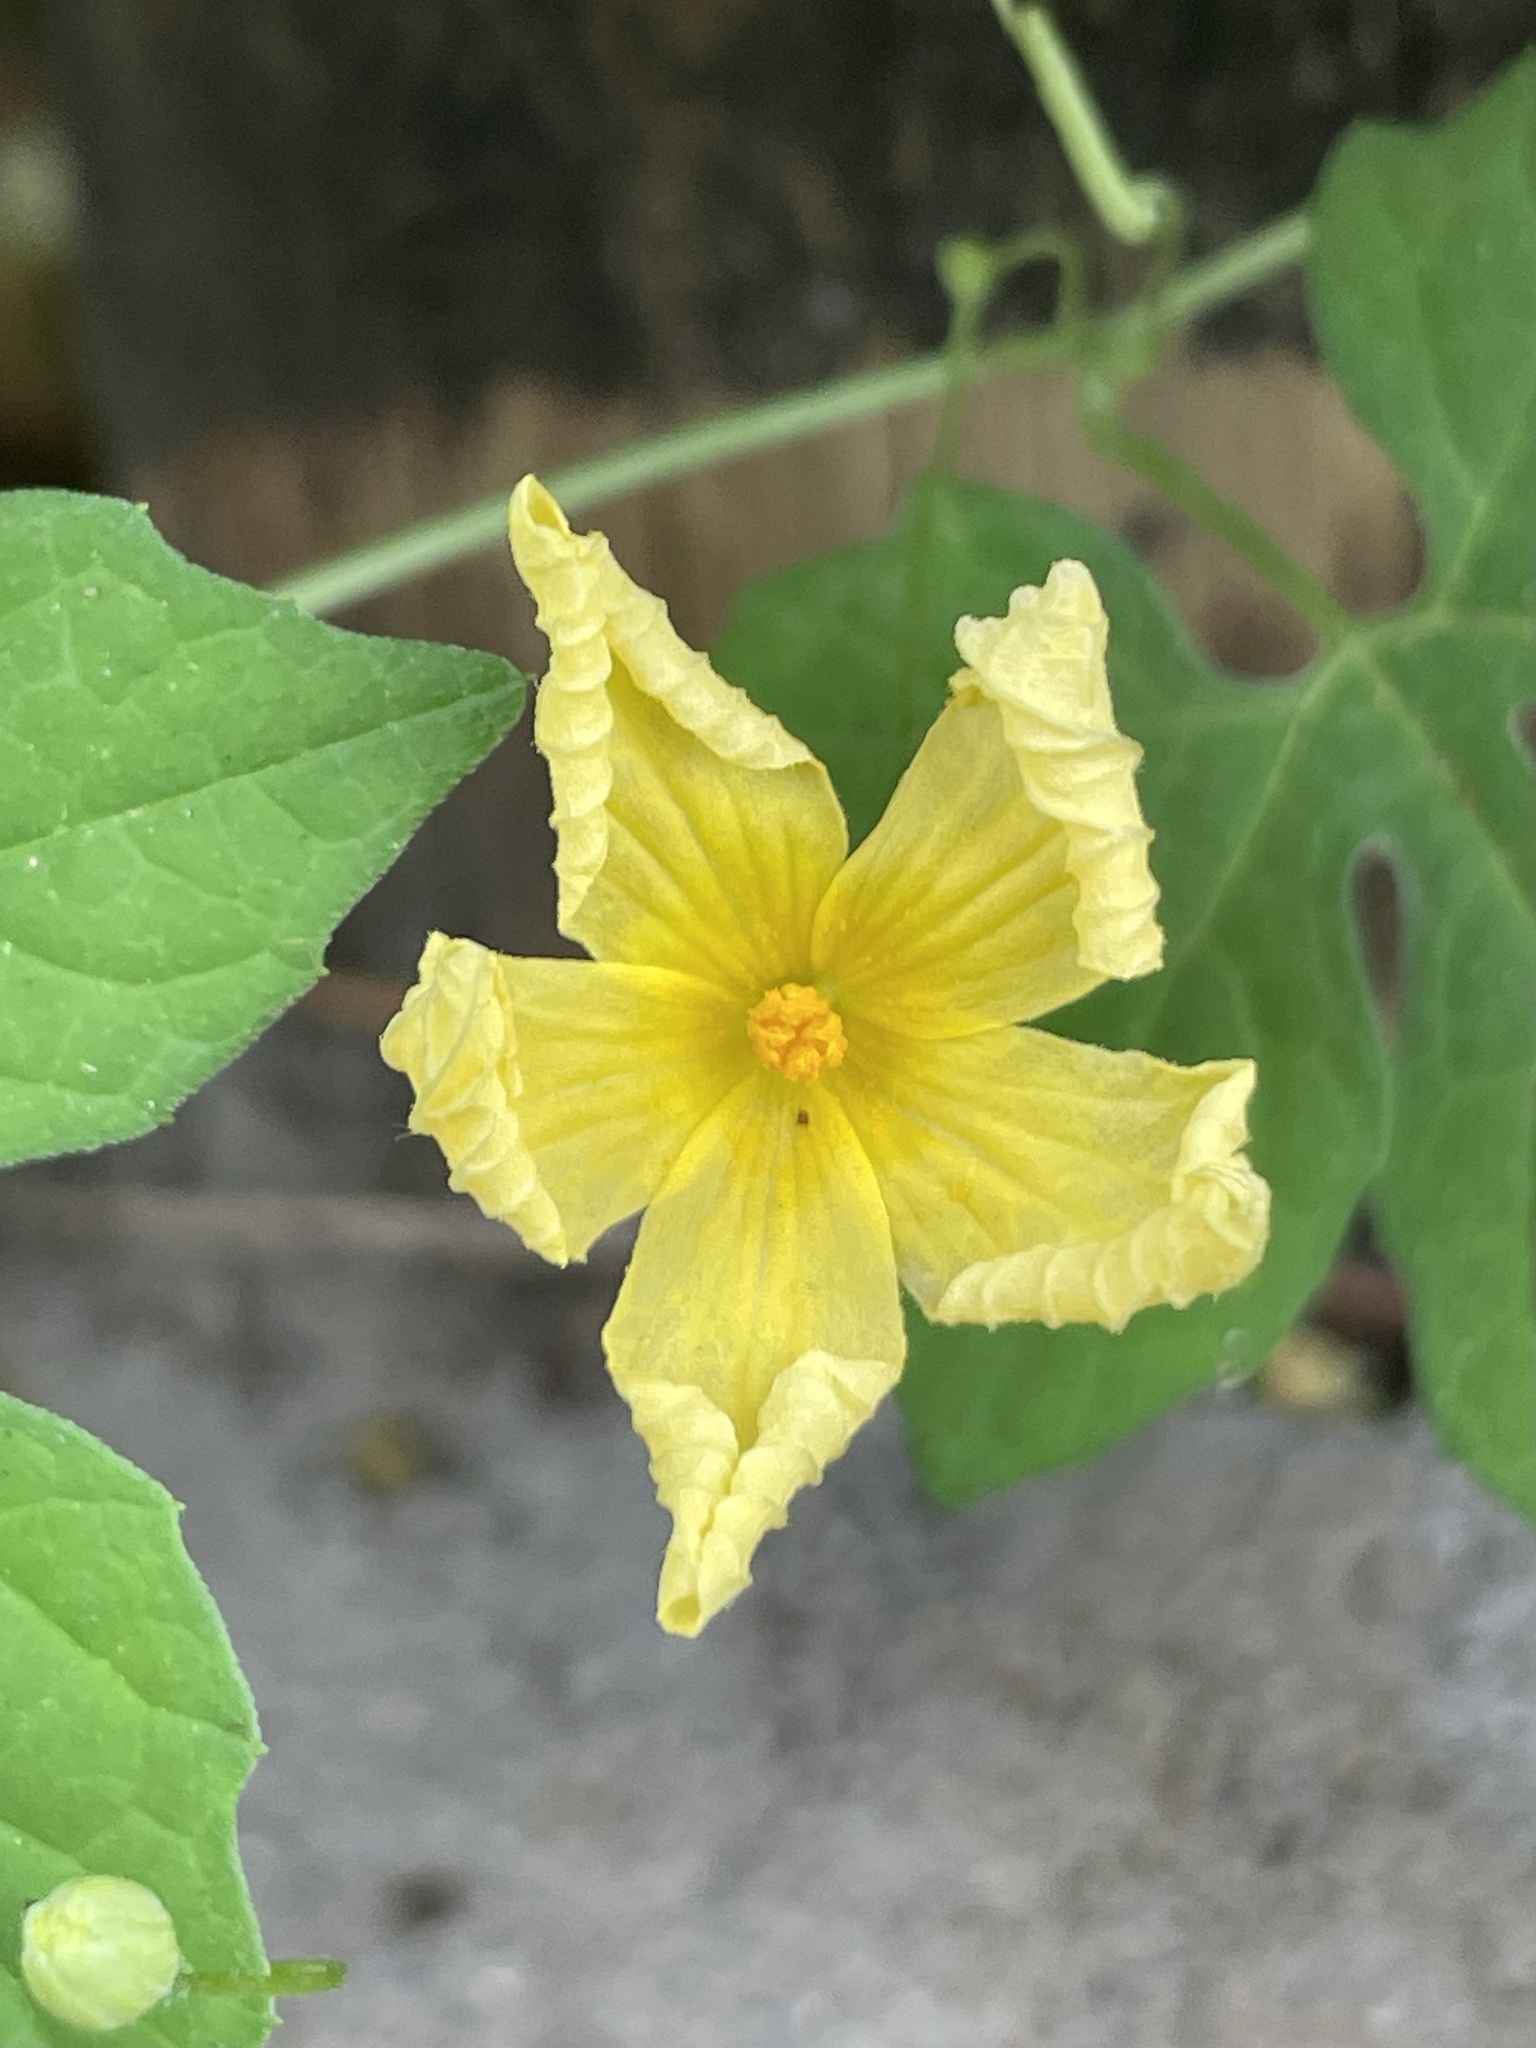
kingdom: Plantae
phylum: Tracheophyta
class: Magnoliopsida
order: Cucurbitales
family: Cucurbitaceae
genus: Momordica
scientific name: Momordica charantia
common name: Balsampear
